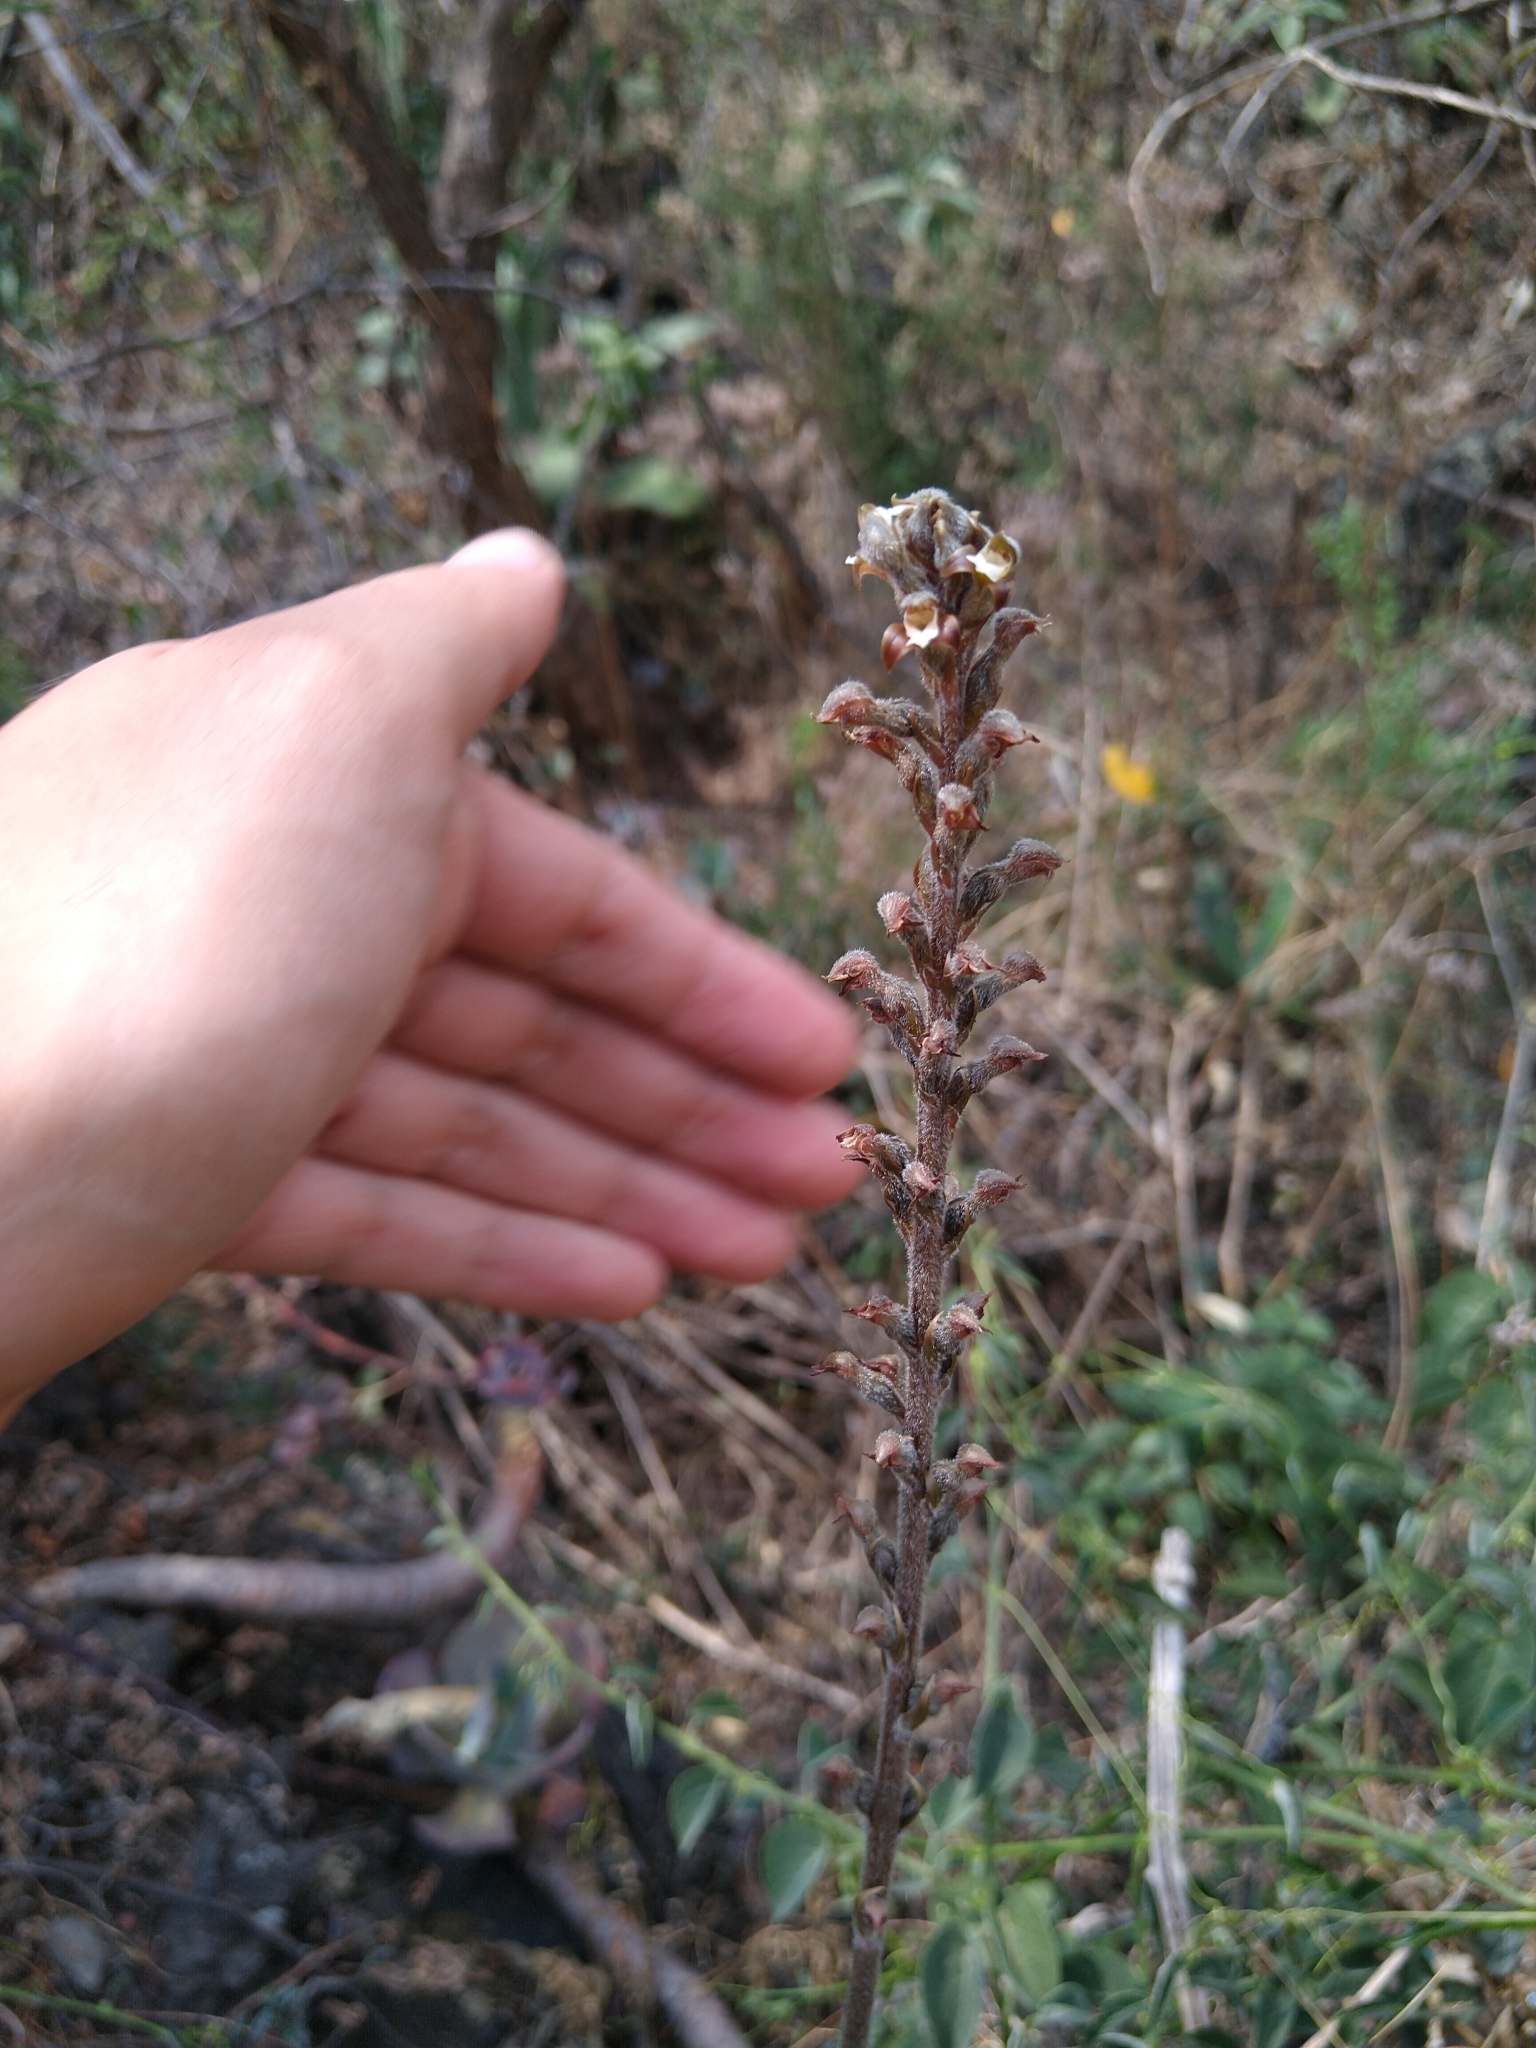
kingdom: Plantae
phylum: Tracheophyta
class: Liliopsida
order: Asparagales
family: Orchidaceae
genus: Sarcoglottis
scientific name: Sarcoglottis schaffneri
